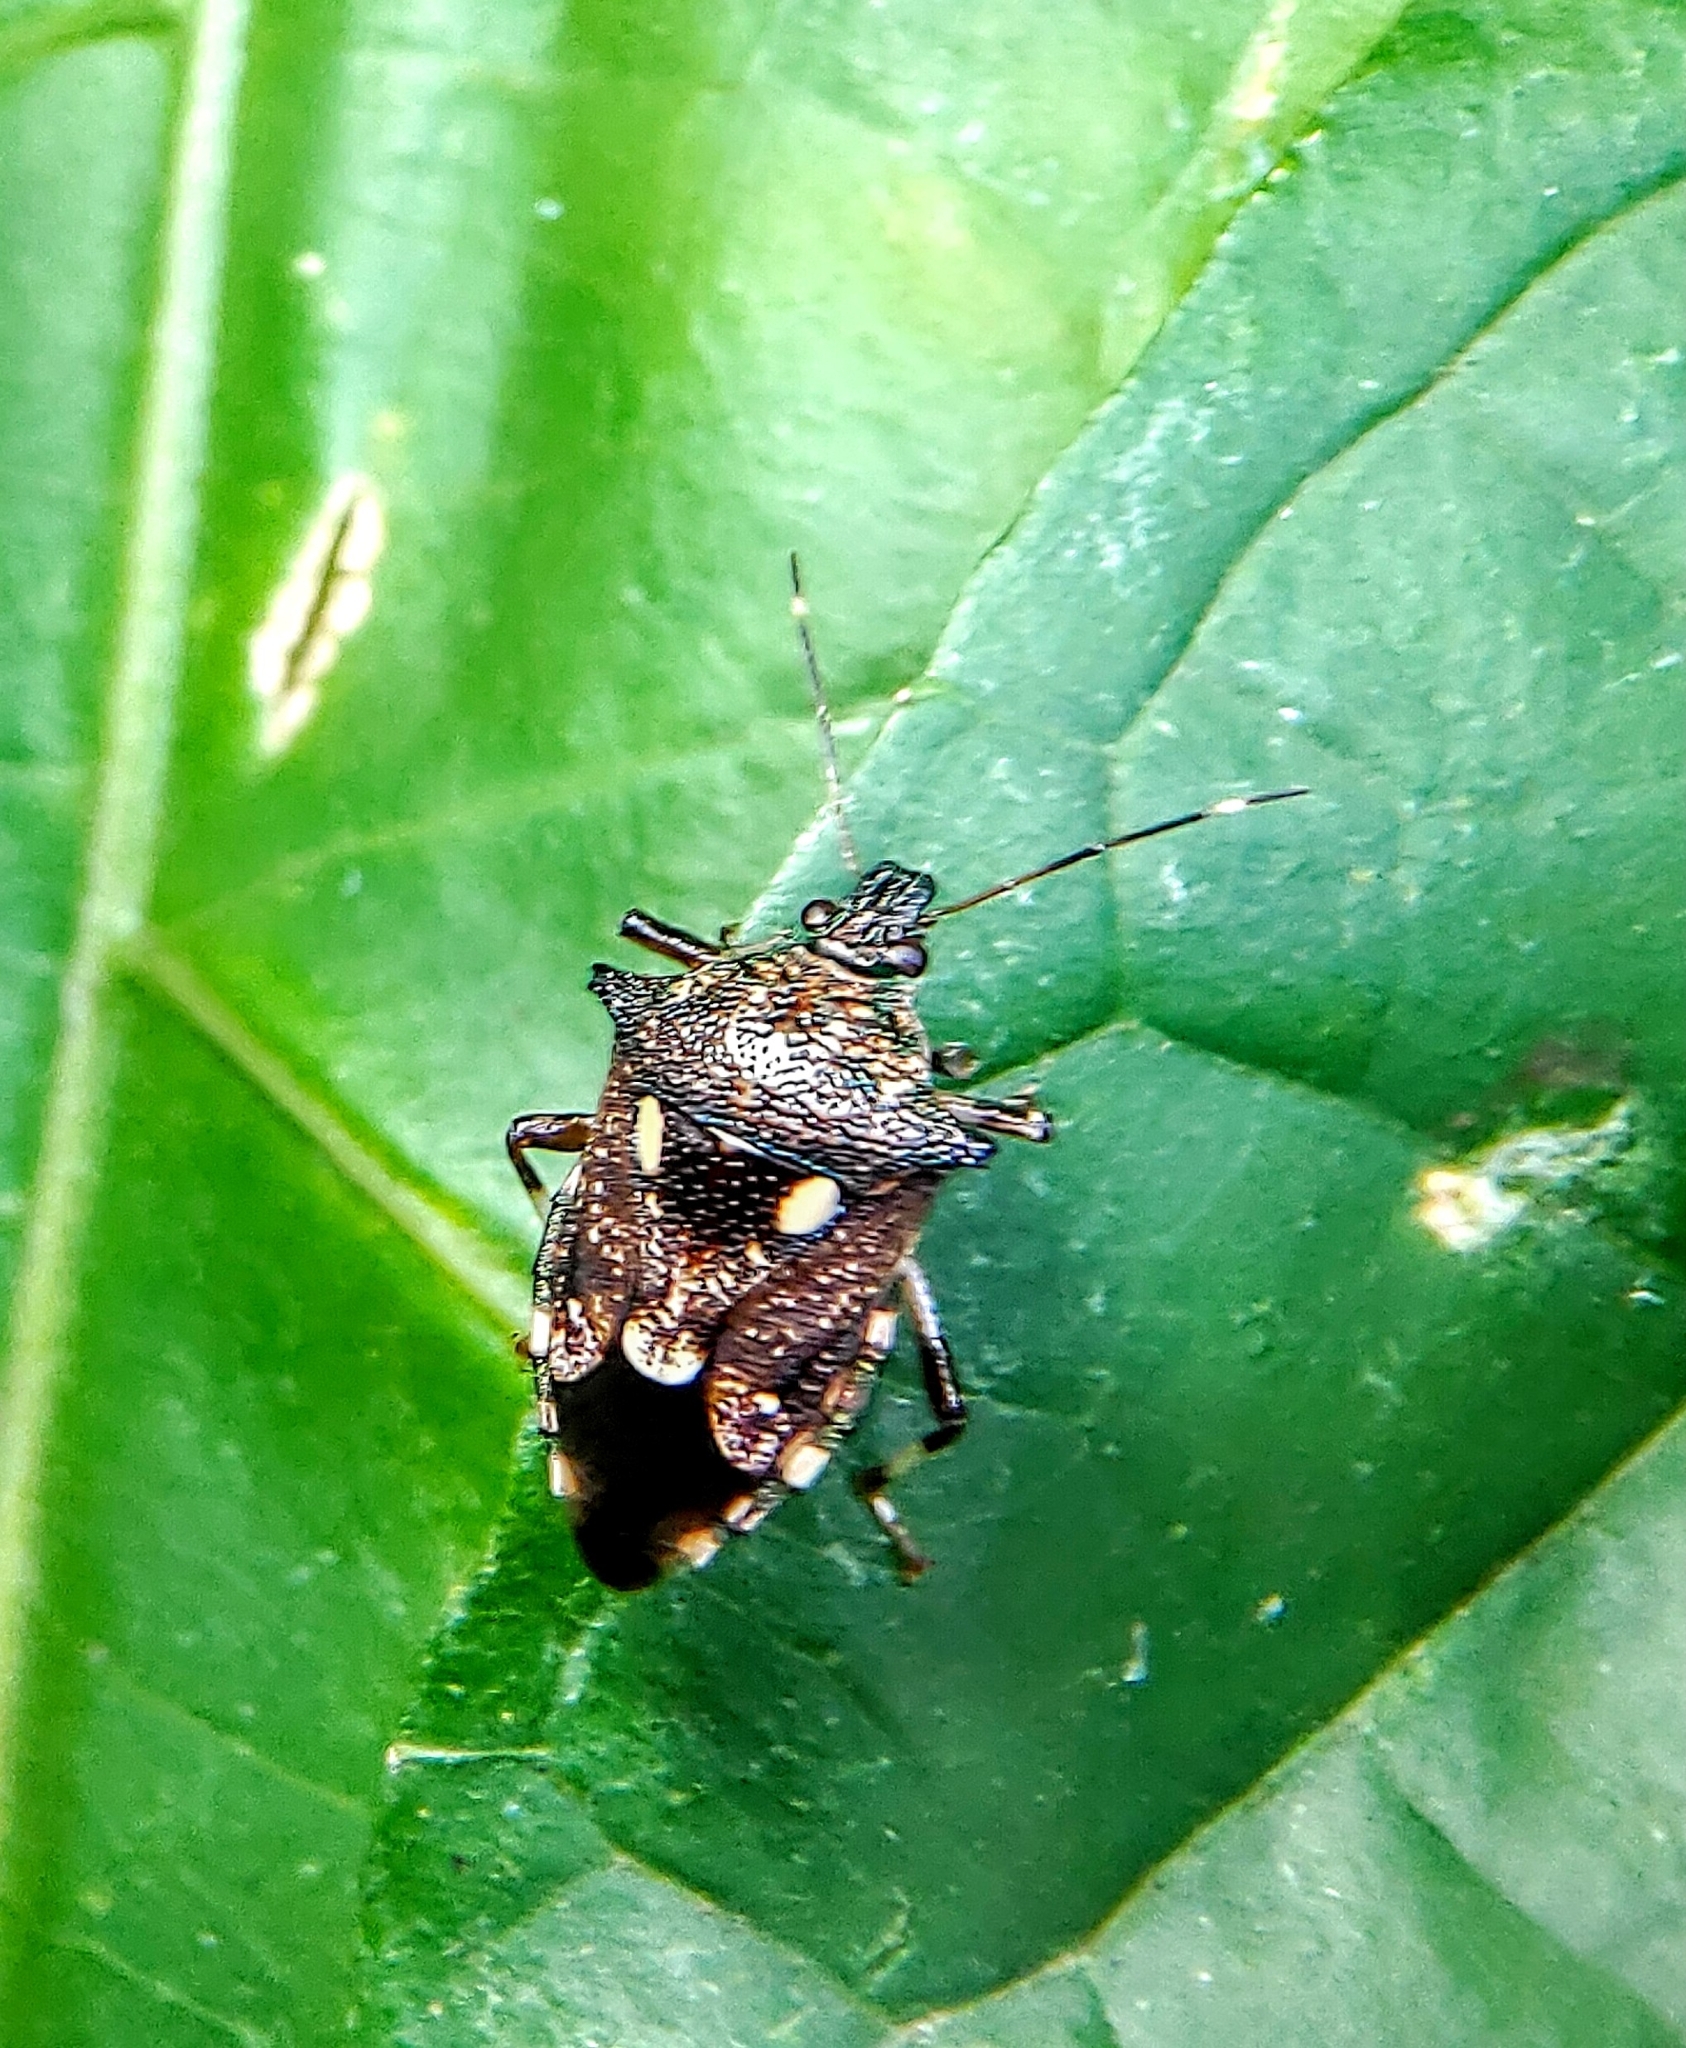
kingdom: Animalia
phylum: Arthropoda
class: Insecta
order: Hemiptera
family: Pentatomidae
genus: Eocanthecona
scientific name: Eocanthecona
